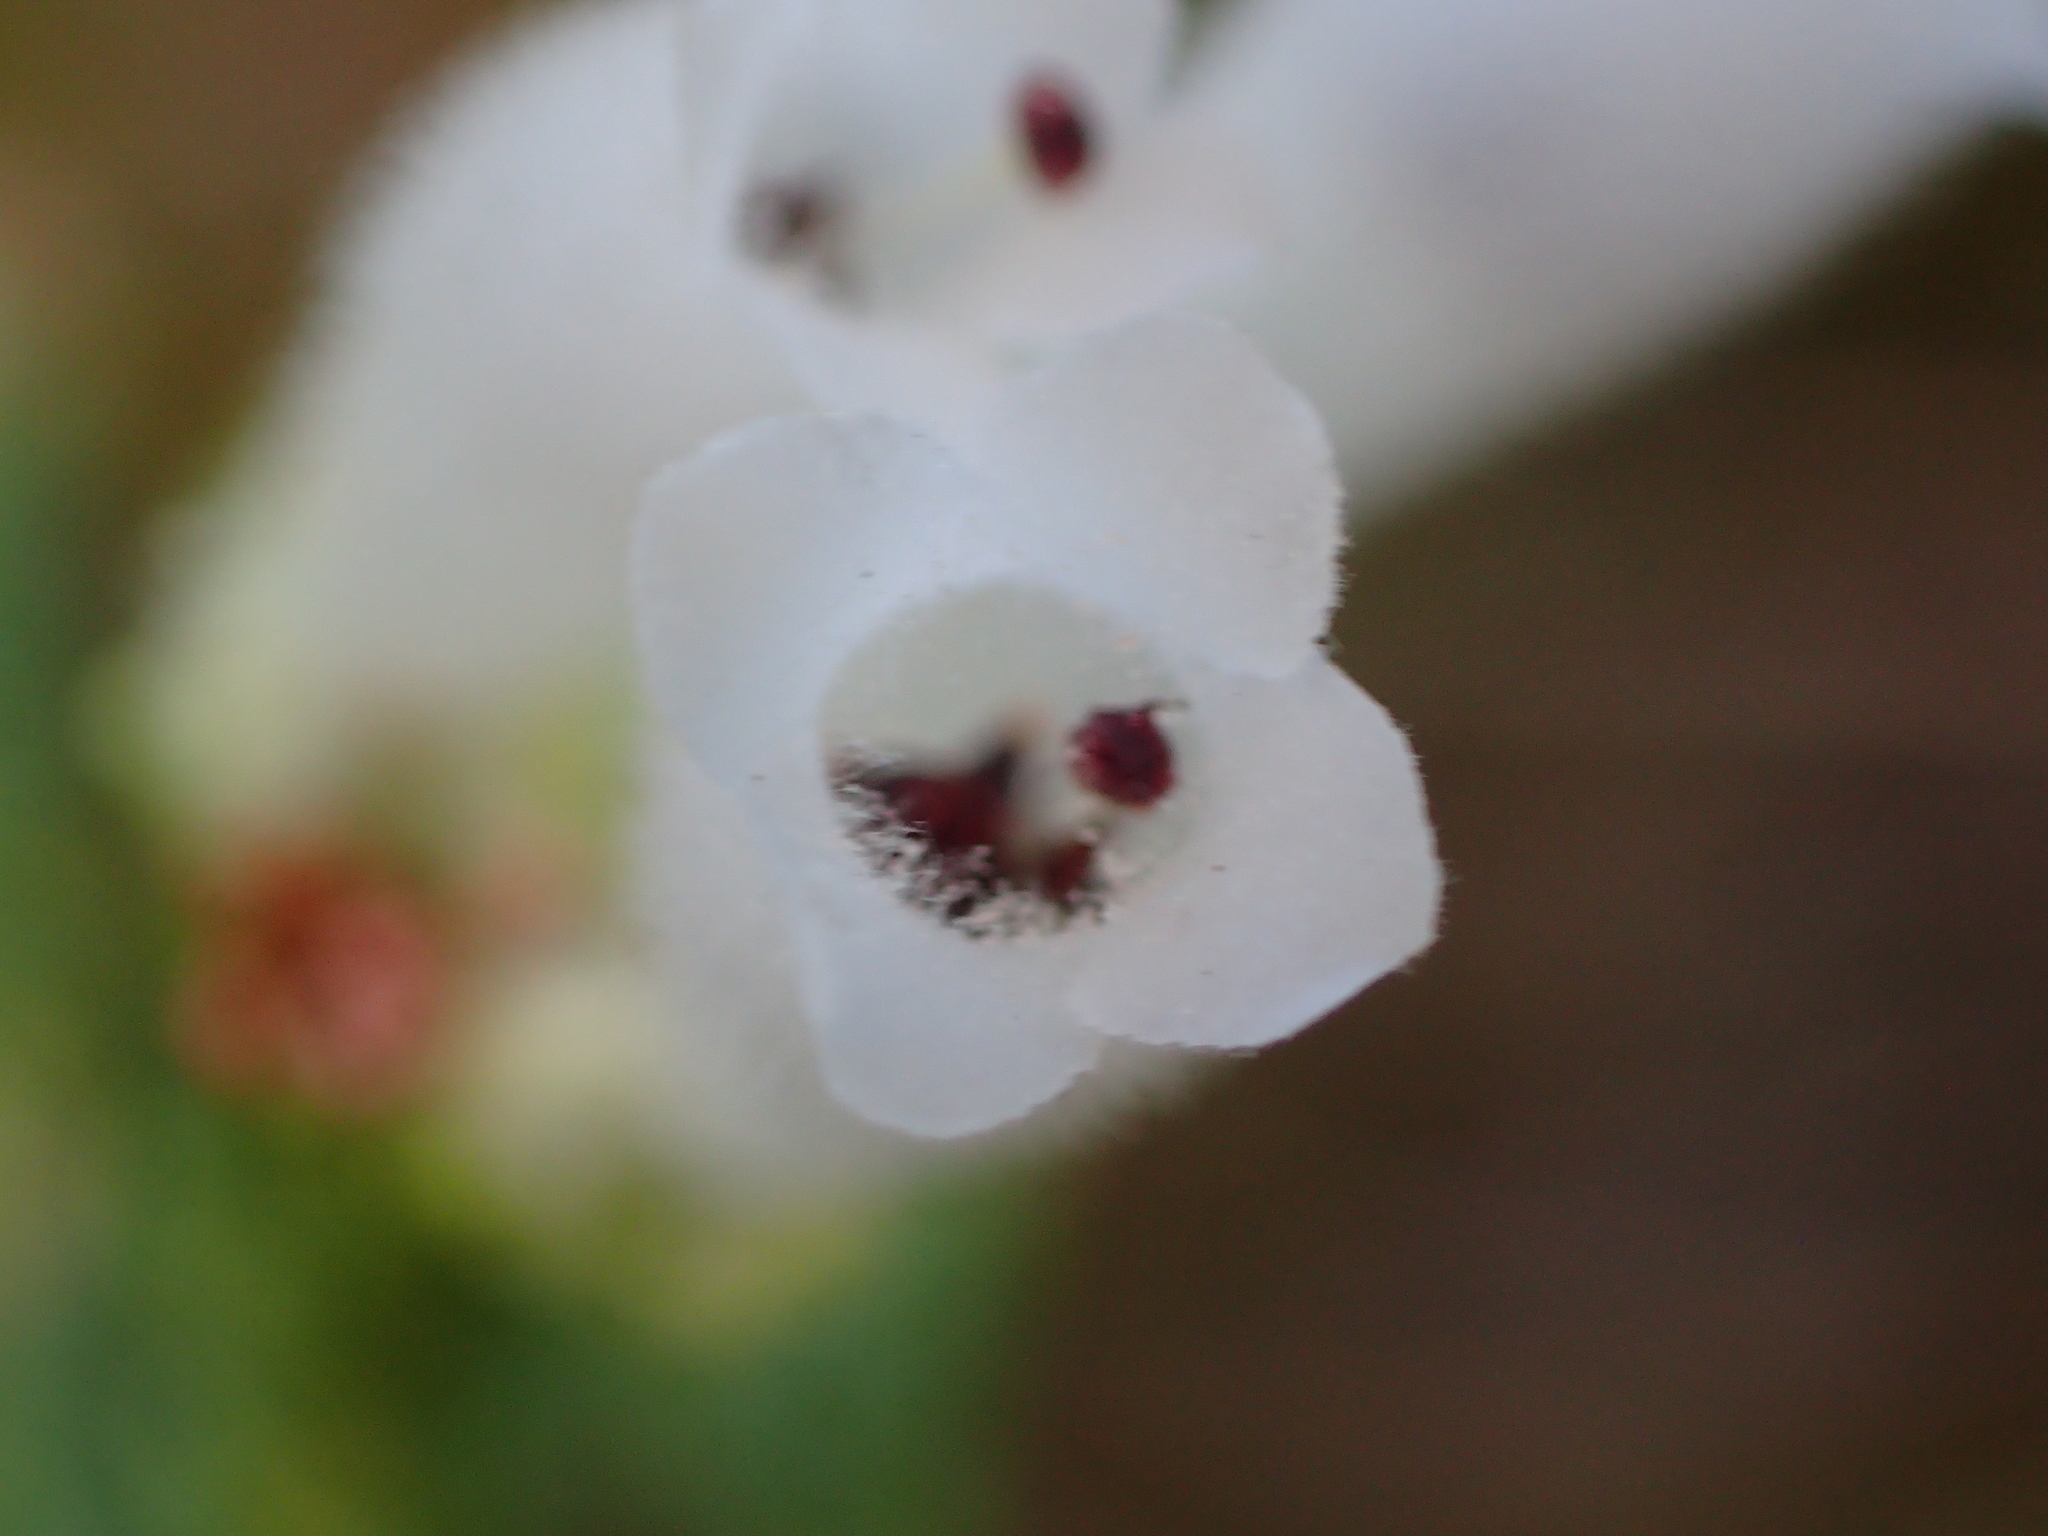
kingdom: Plantae
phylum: Tracheophyta
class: Magnoliopsida
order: Ericales
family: Ericaceae
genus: Erica
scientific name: Erica pectinifolia
